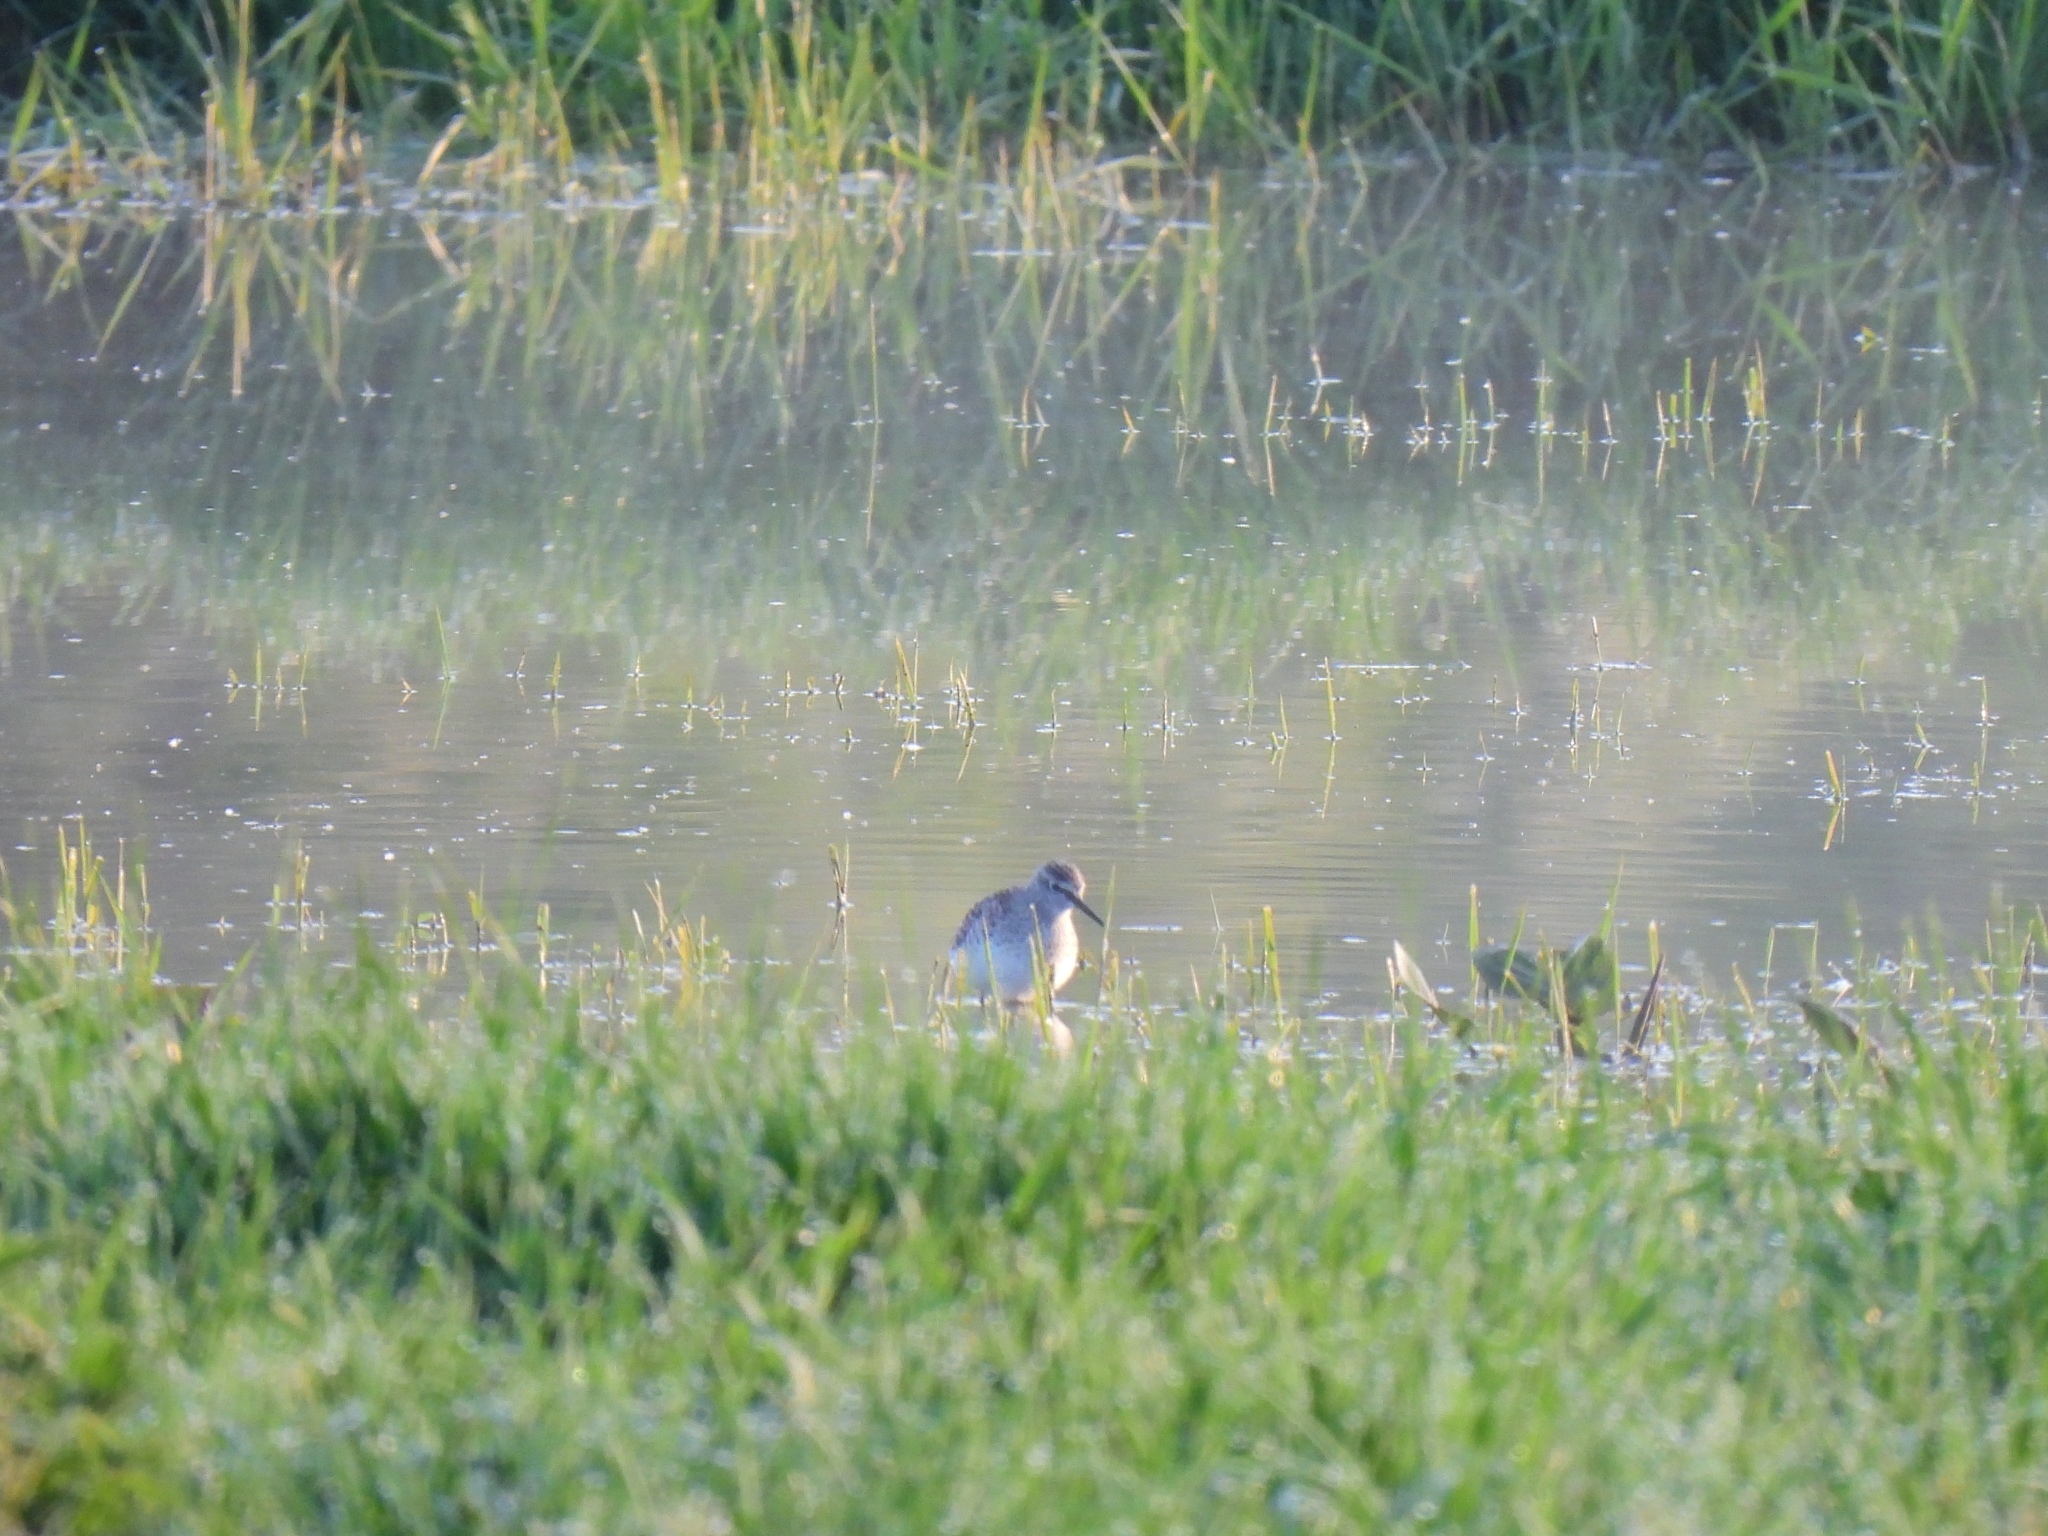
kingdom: Animalia
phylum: Chordata
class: Aves
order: Charadriiformes
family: Scolopacidae
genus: Tringa
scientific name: Tringa glareola
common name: Wood sandpiper
